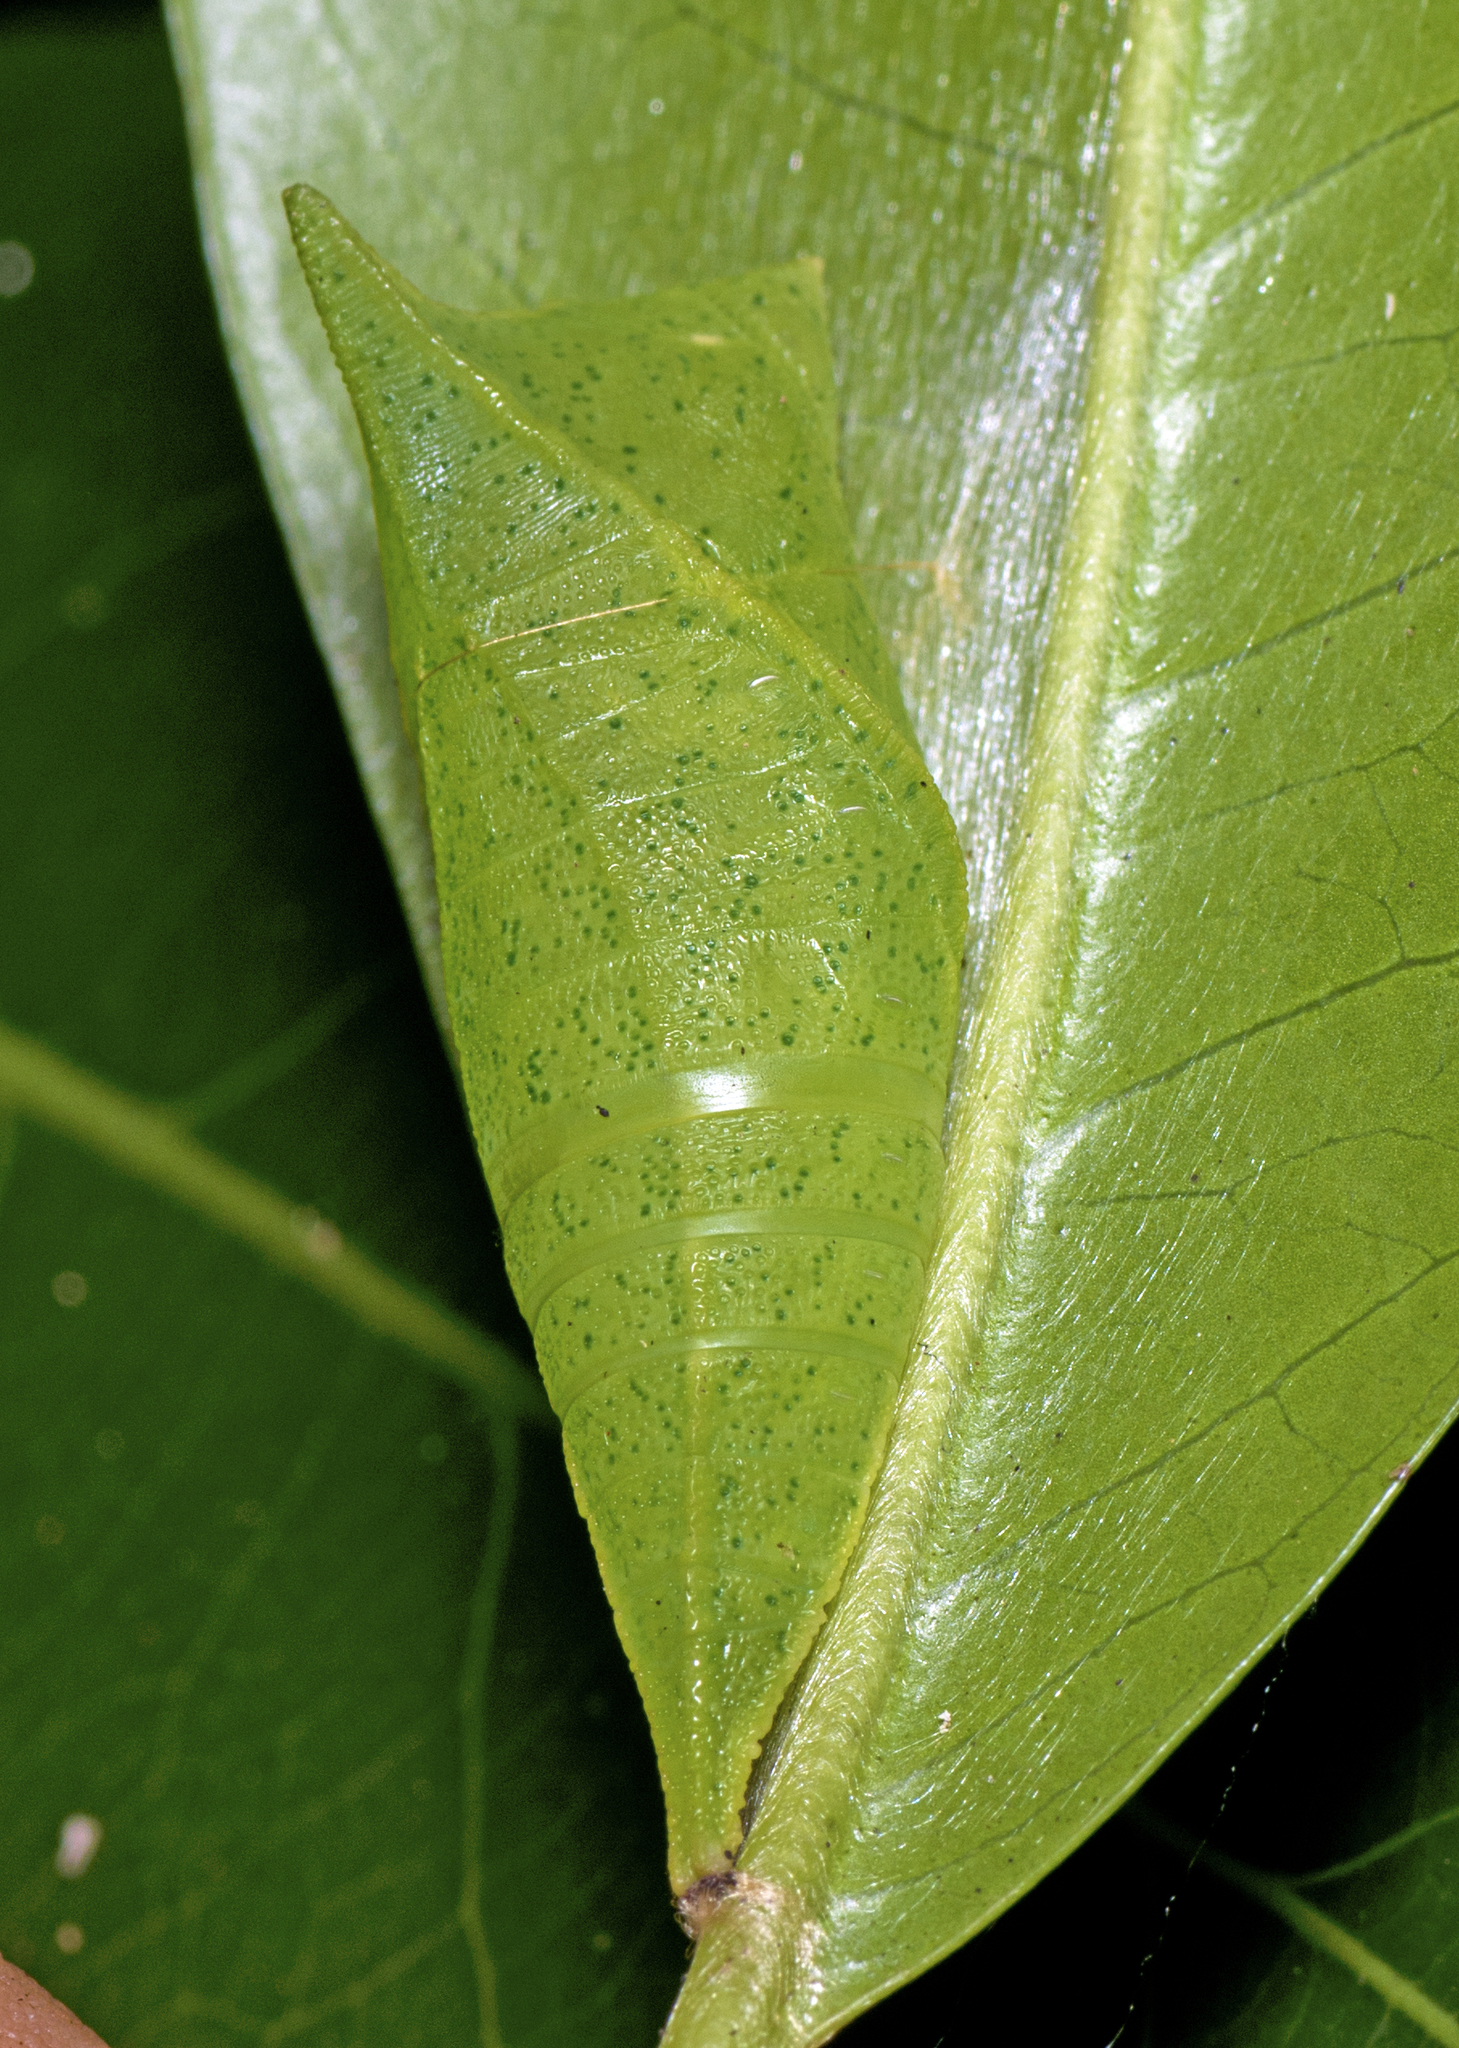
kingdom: Animalia
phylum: Arthropoda
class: Insecta
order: Lepidoptera
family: Papilionidae
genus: Graphium
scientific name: Graphium eurypylus
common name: Great jay
